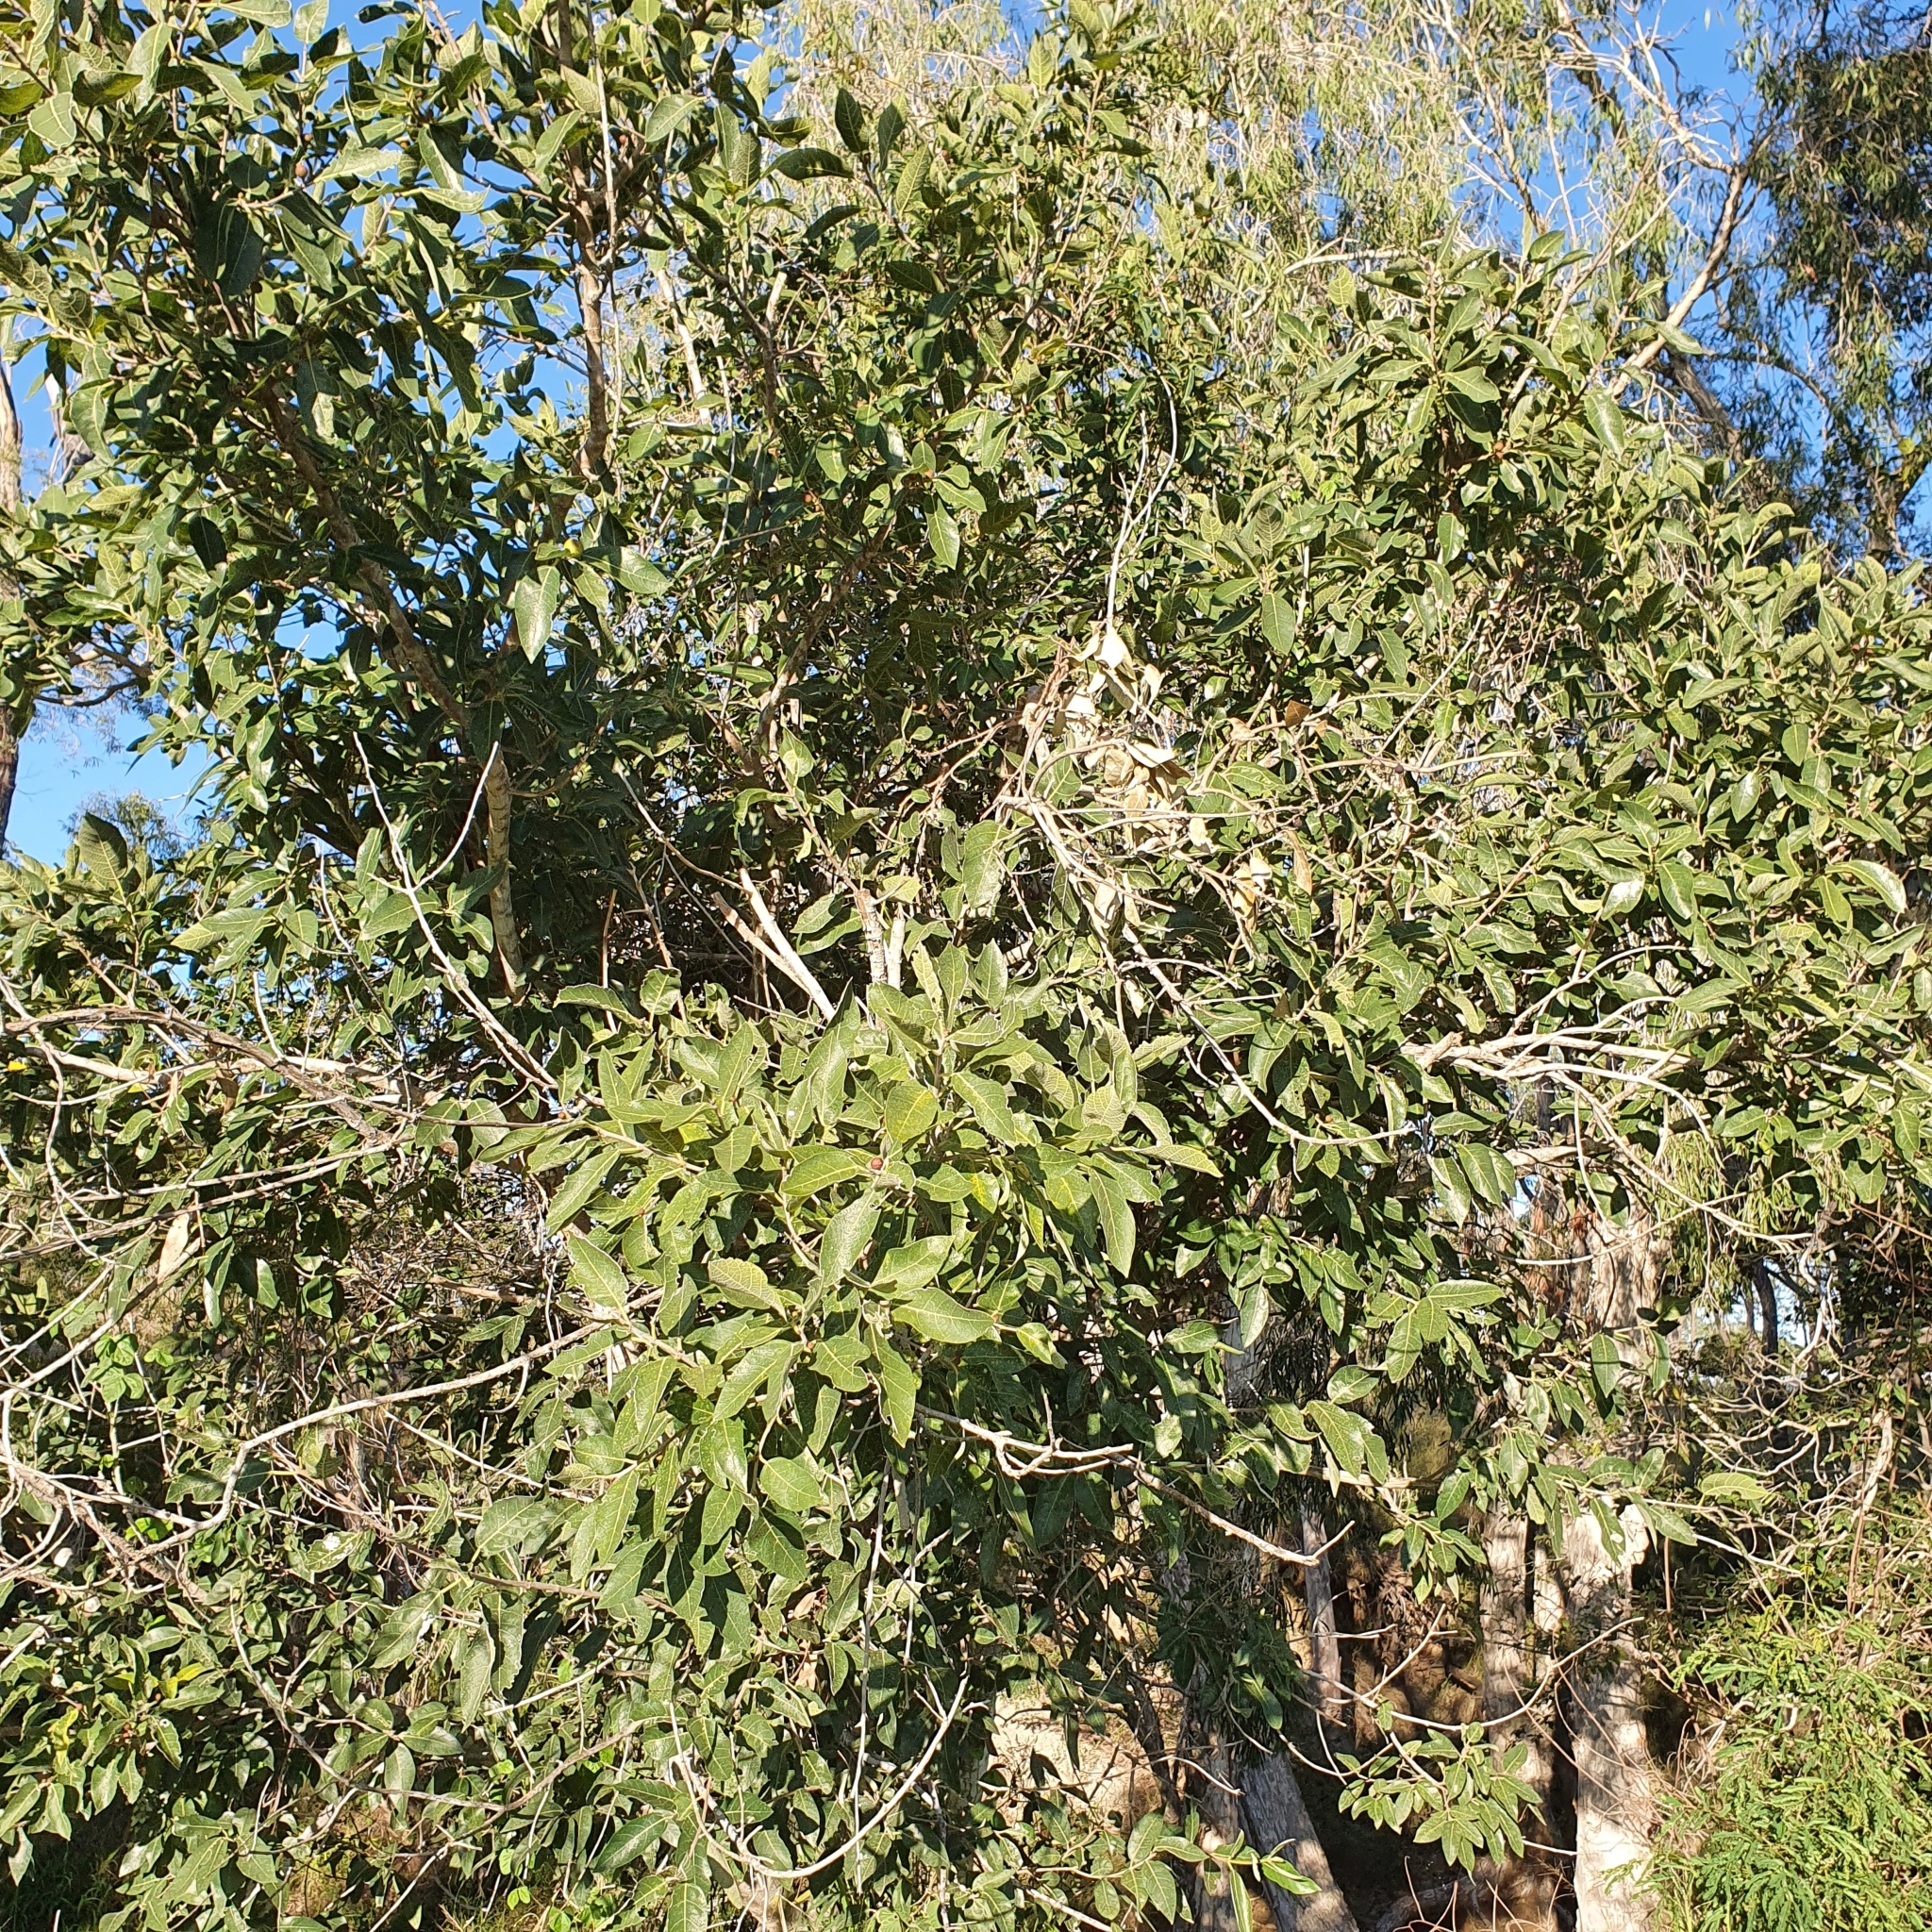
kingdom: Plantae
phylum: Tracheophyta
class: Magnoliopsida
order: Rosales
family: Moraceae
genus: Ficus
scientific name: Ficus opposita
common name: Figwood
